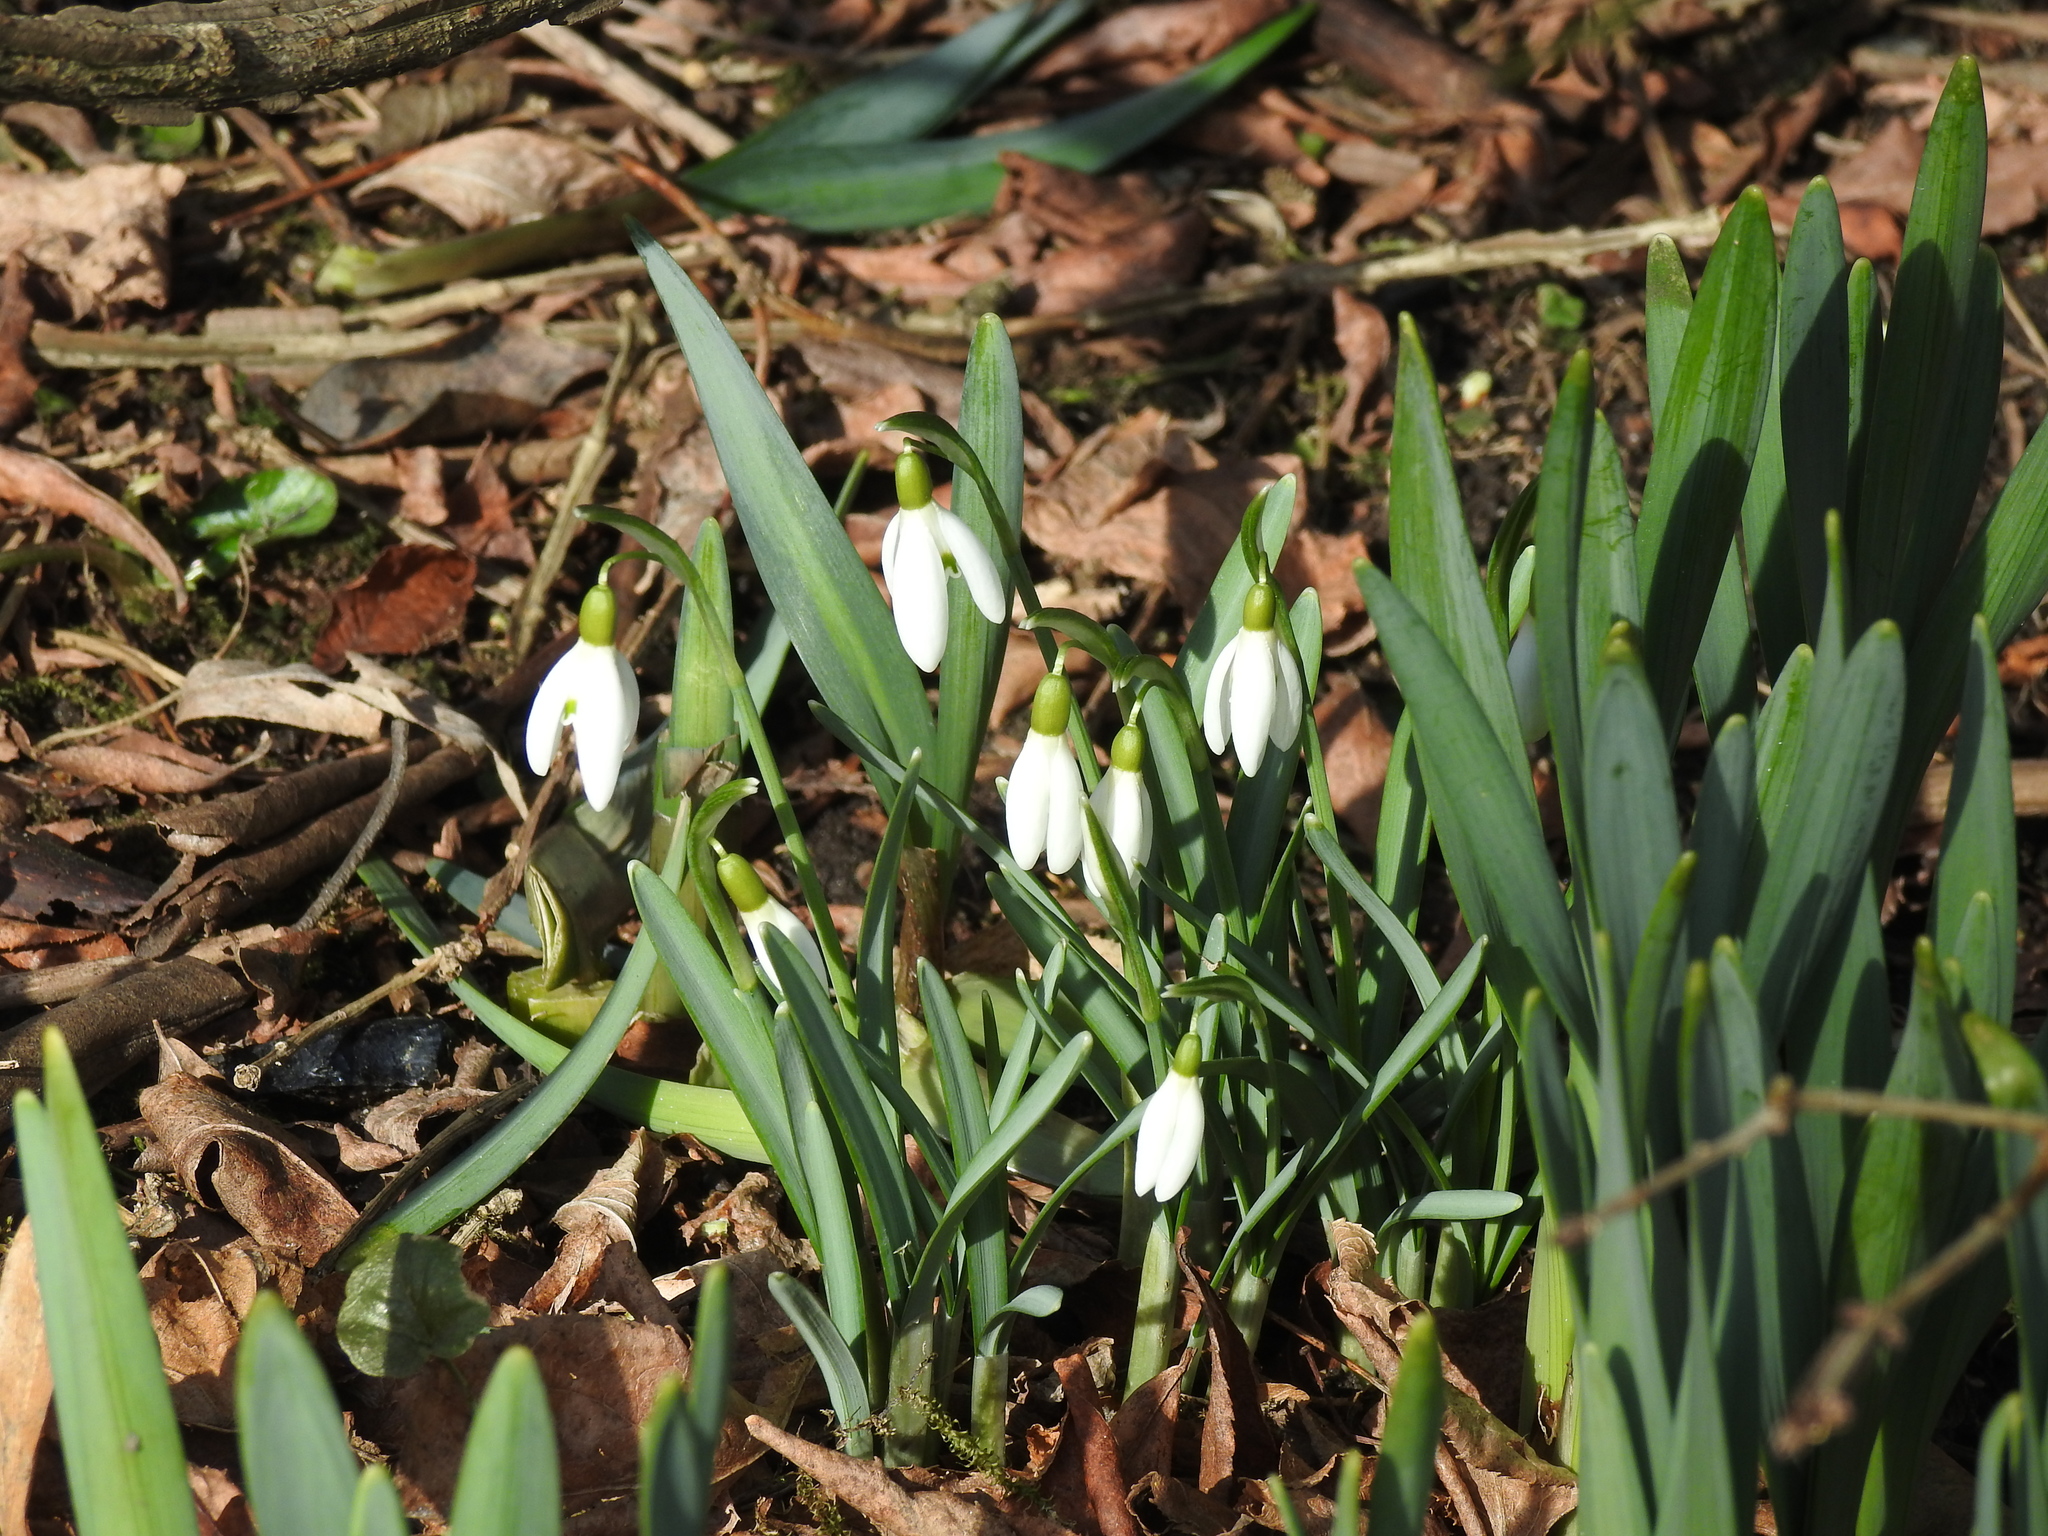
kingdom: Plantae
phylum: Tracheophyta
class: Liliopsida
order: Asparagales
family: Amaryllidaceae
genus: Galanthus
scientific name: Galanthus nivalis
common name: Snowdrop
